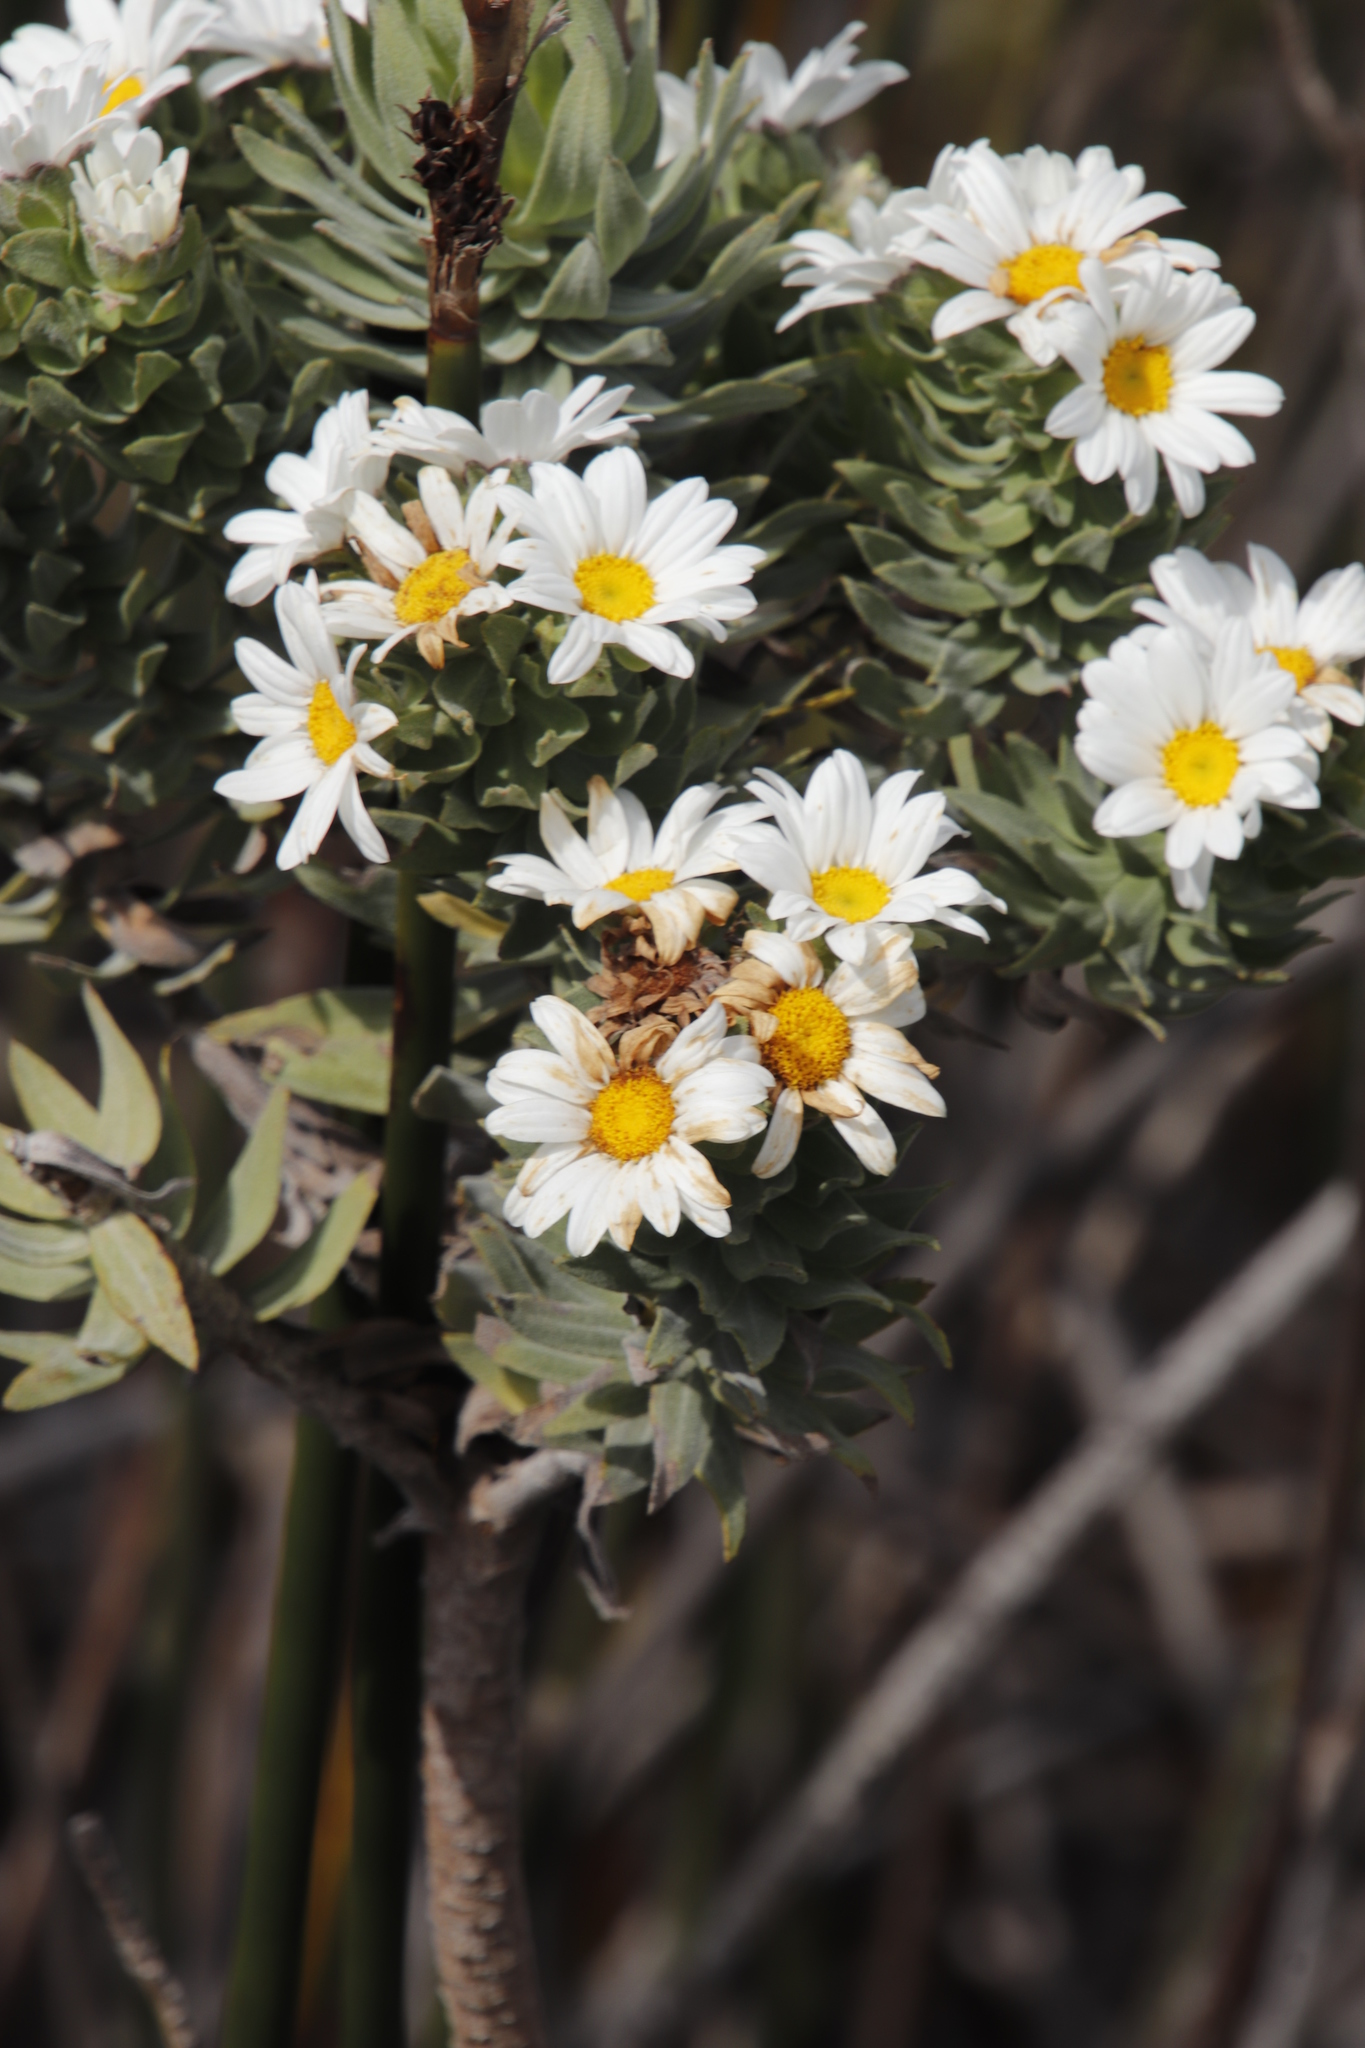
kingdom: Plantae
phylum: Tracheophyta
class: Magnoliopsida
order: Asterales
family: Asteraceae
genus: Osmitopsis
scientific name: Osmitopsis asteriscoides
